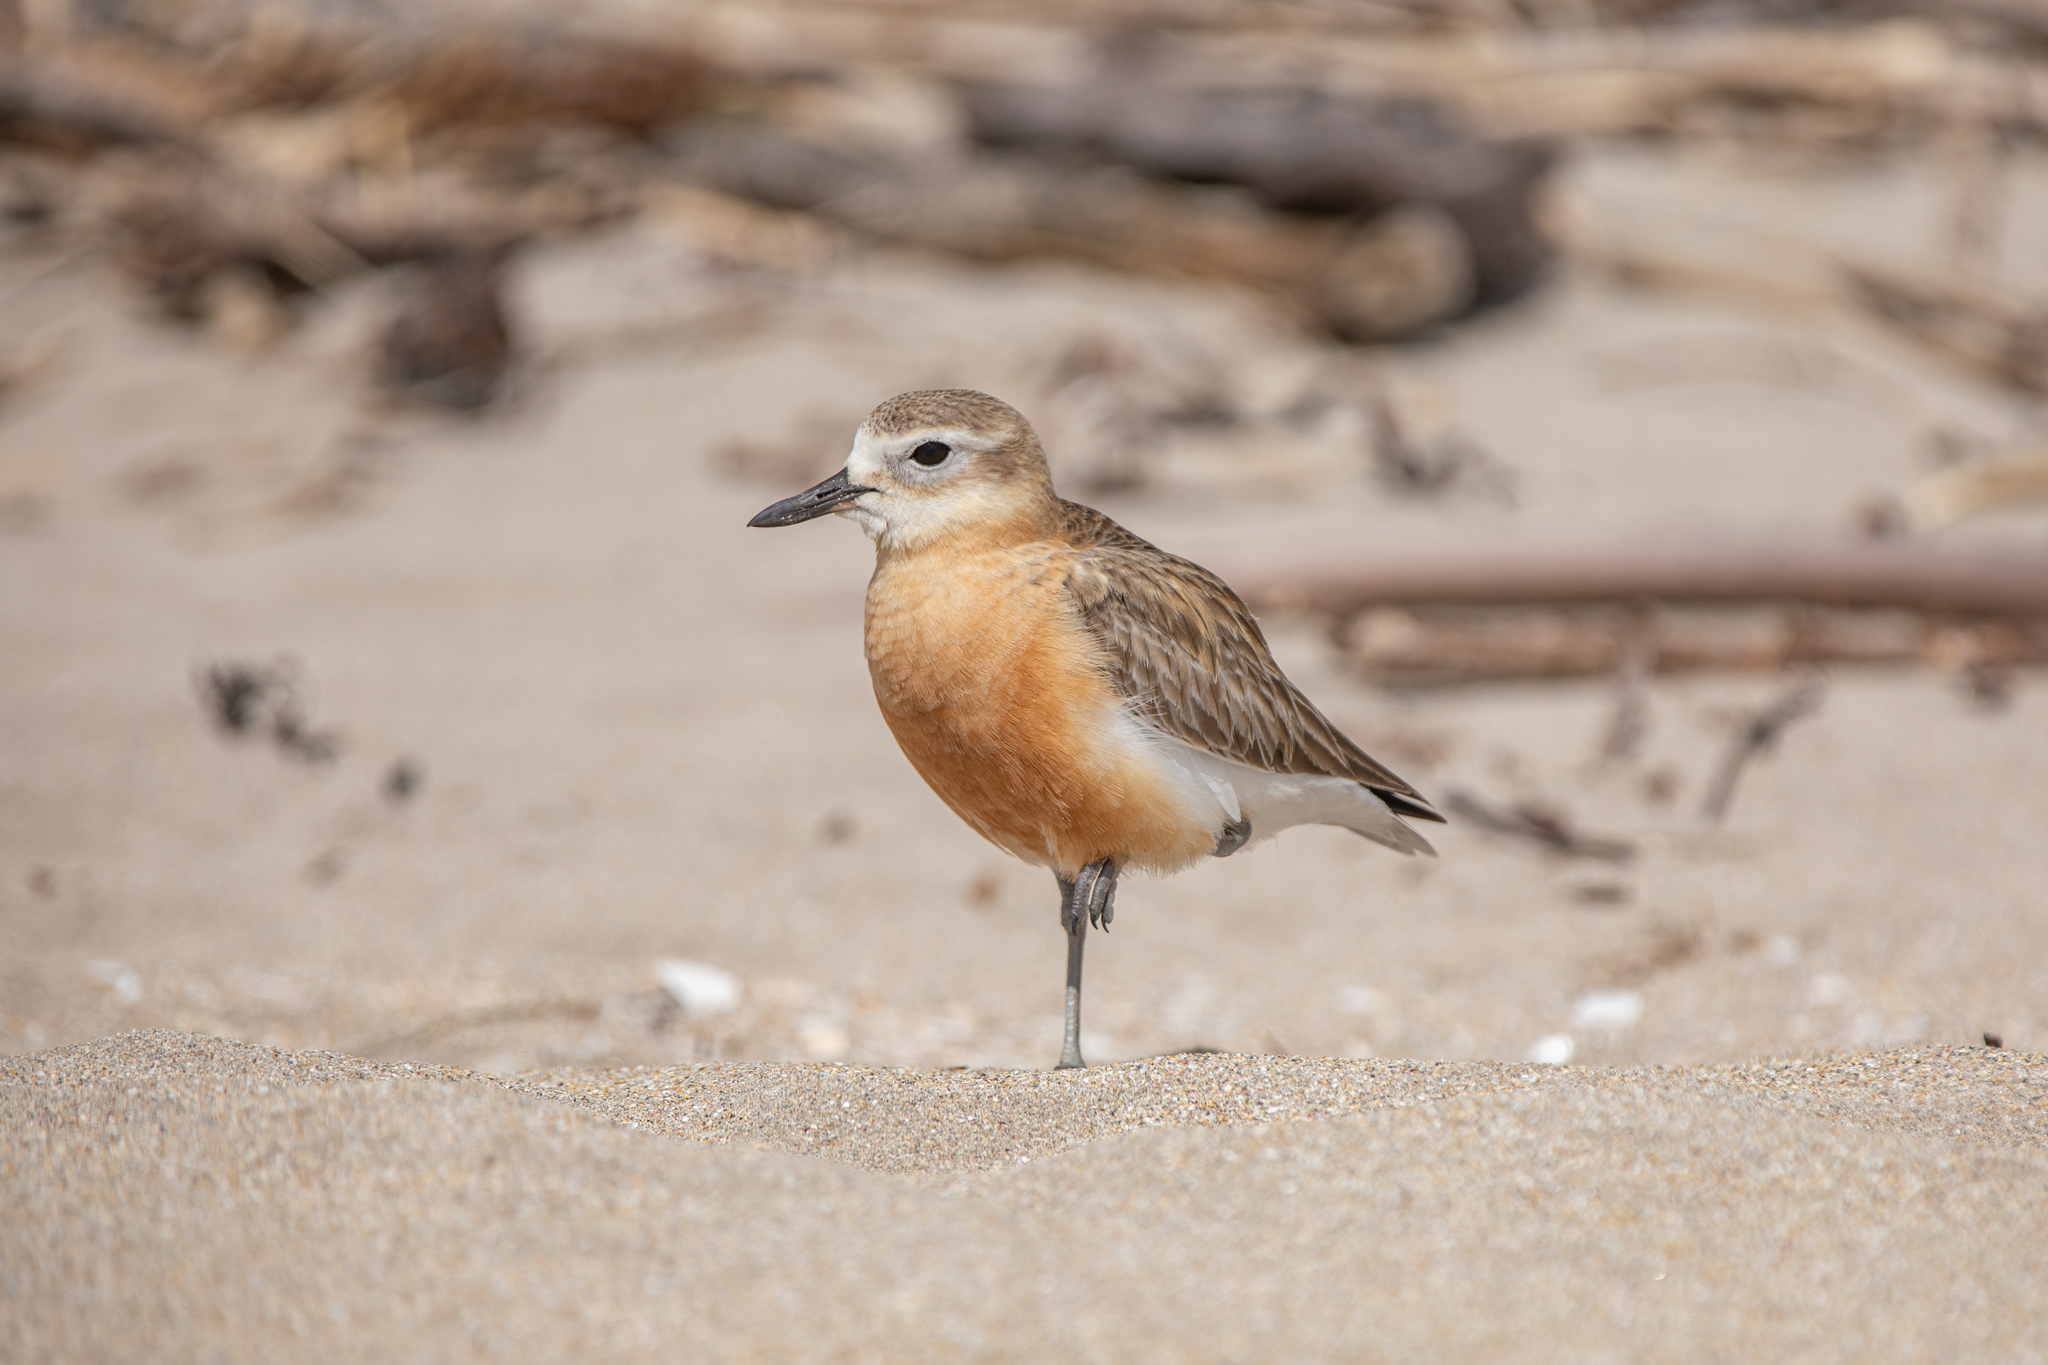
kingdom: Animalia
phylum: Chordata
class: Aves
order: Charadriiformes
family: Charadriidae
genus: Anarhynchus
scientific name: Anarhynchus
